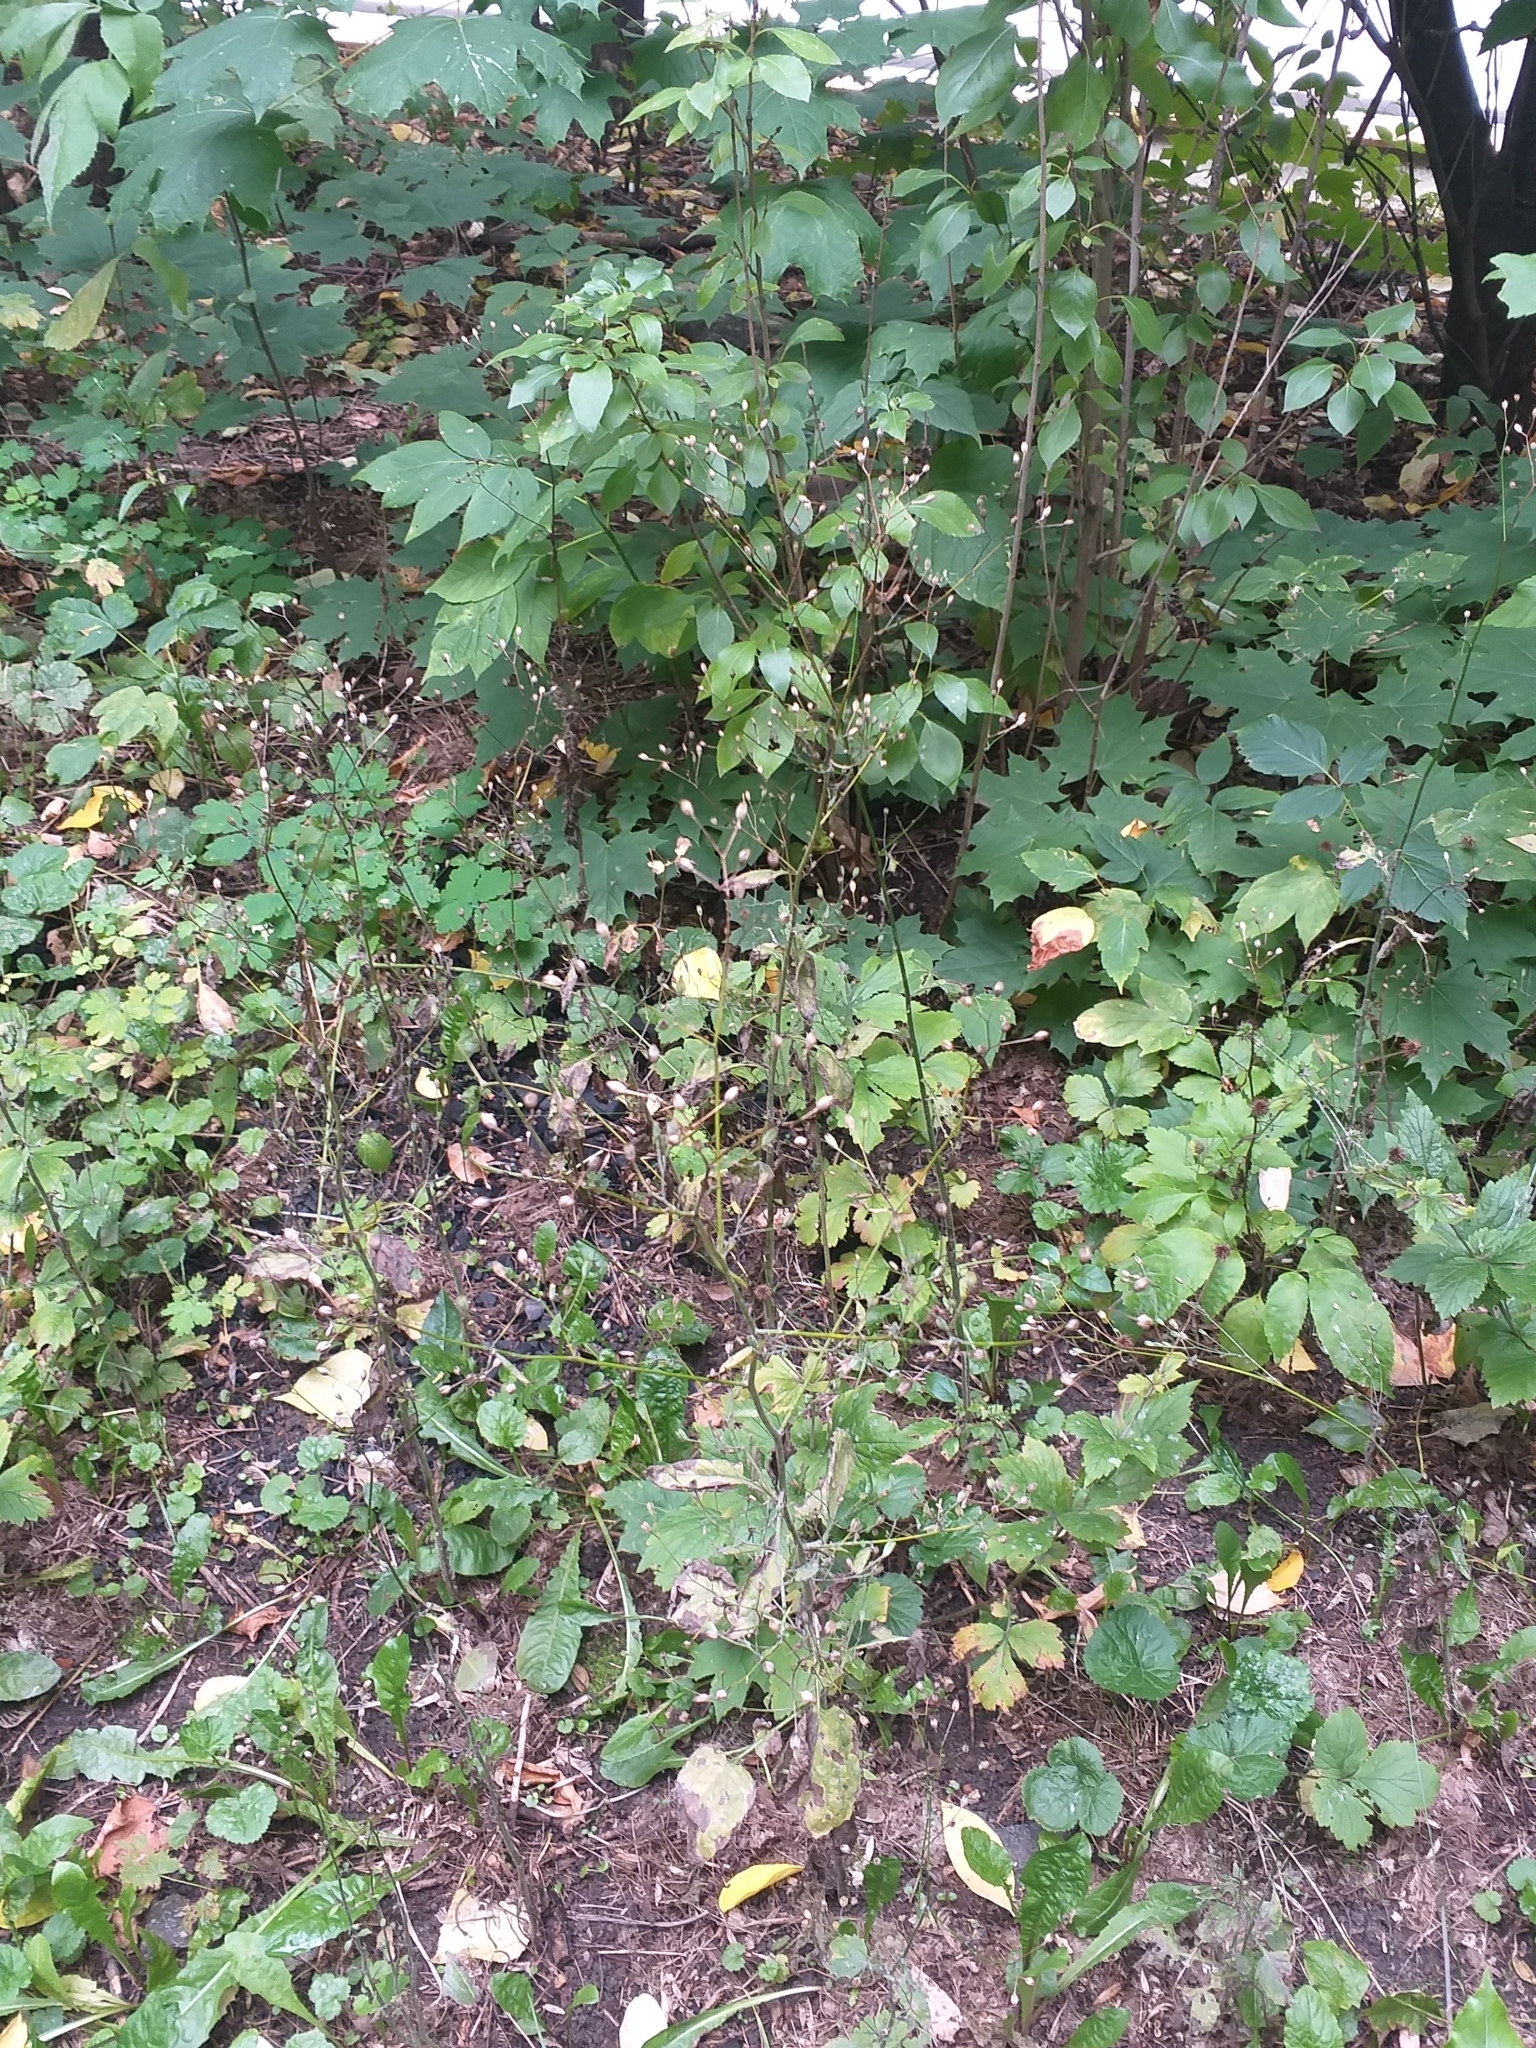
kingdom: Plantae
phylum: Tracheophyta
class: Magnoliopsida
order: Asterales
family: Asteraceae
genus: Lapsana
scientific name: Lapsana communis
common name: Nipplewort
